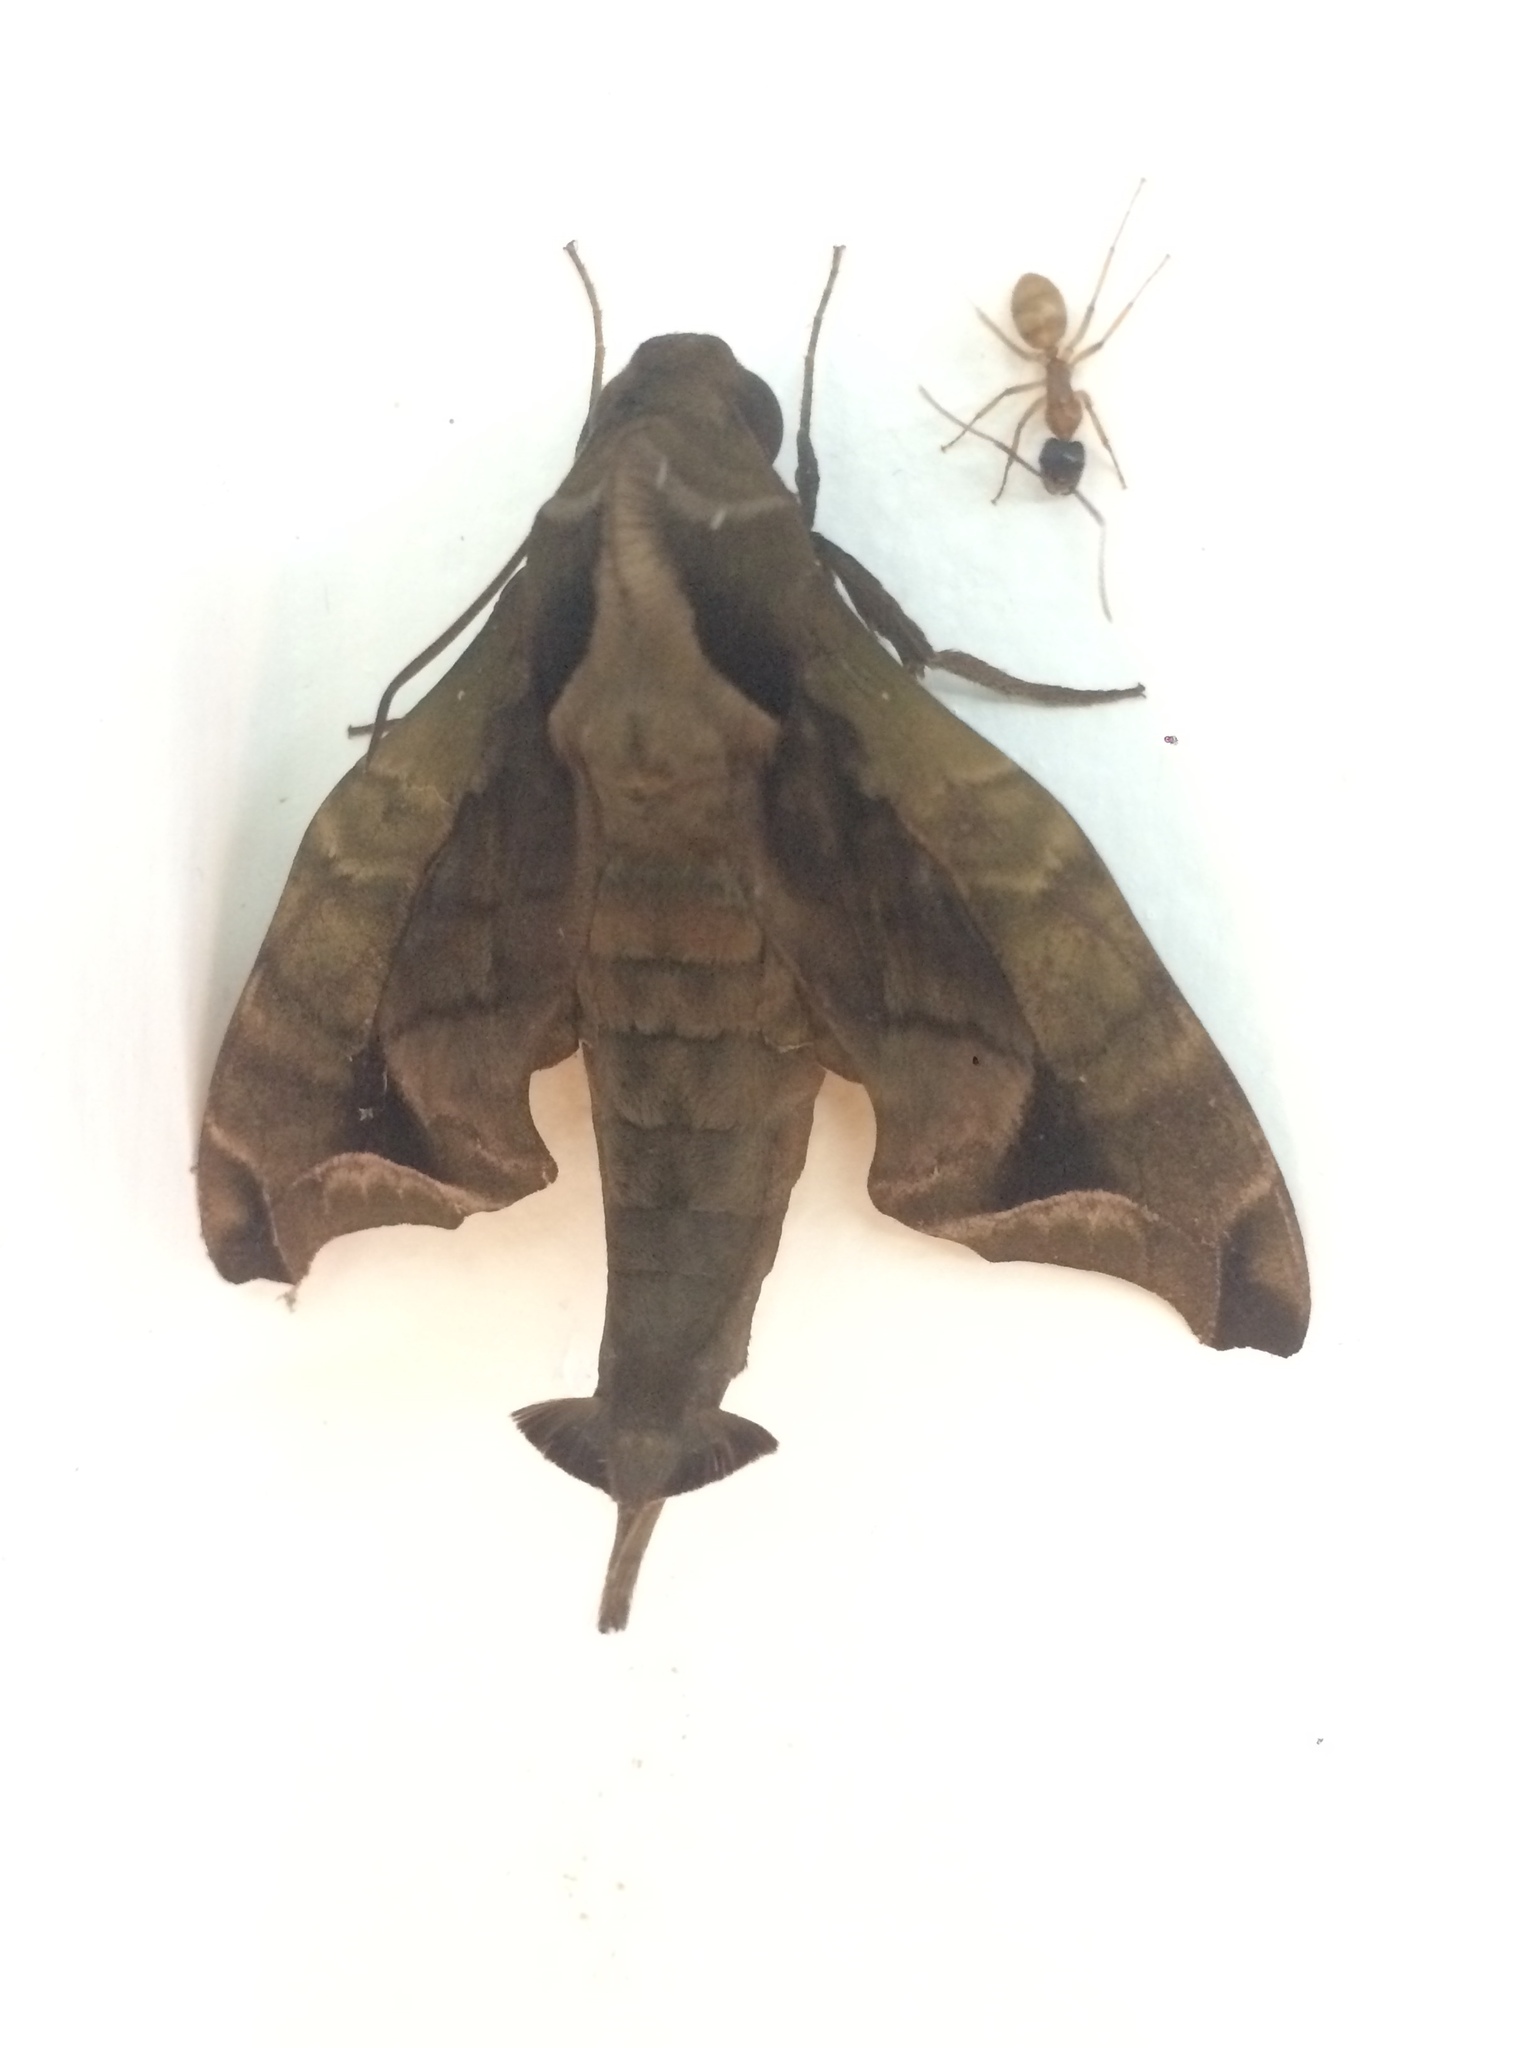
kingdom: Animalia
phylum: Arthropoda
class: Insecta
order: Lepidoptera
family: Sphingidae
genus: Enyo
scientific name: Enyo gorgon
